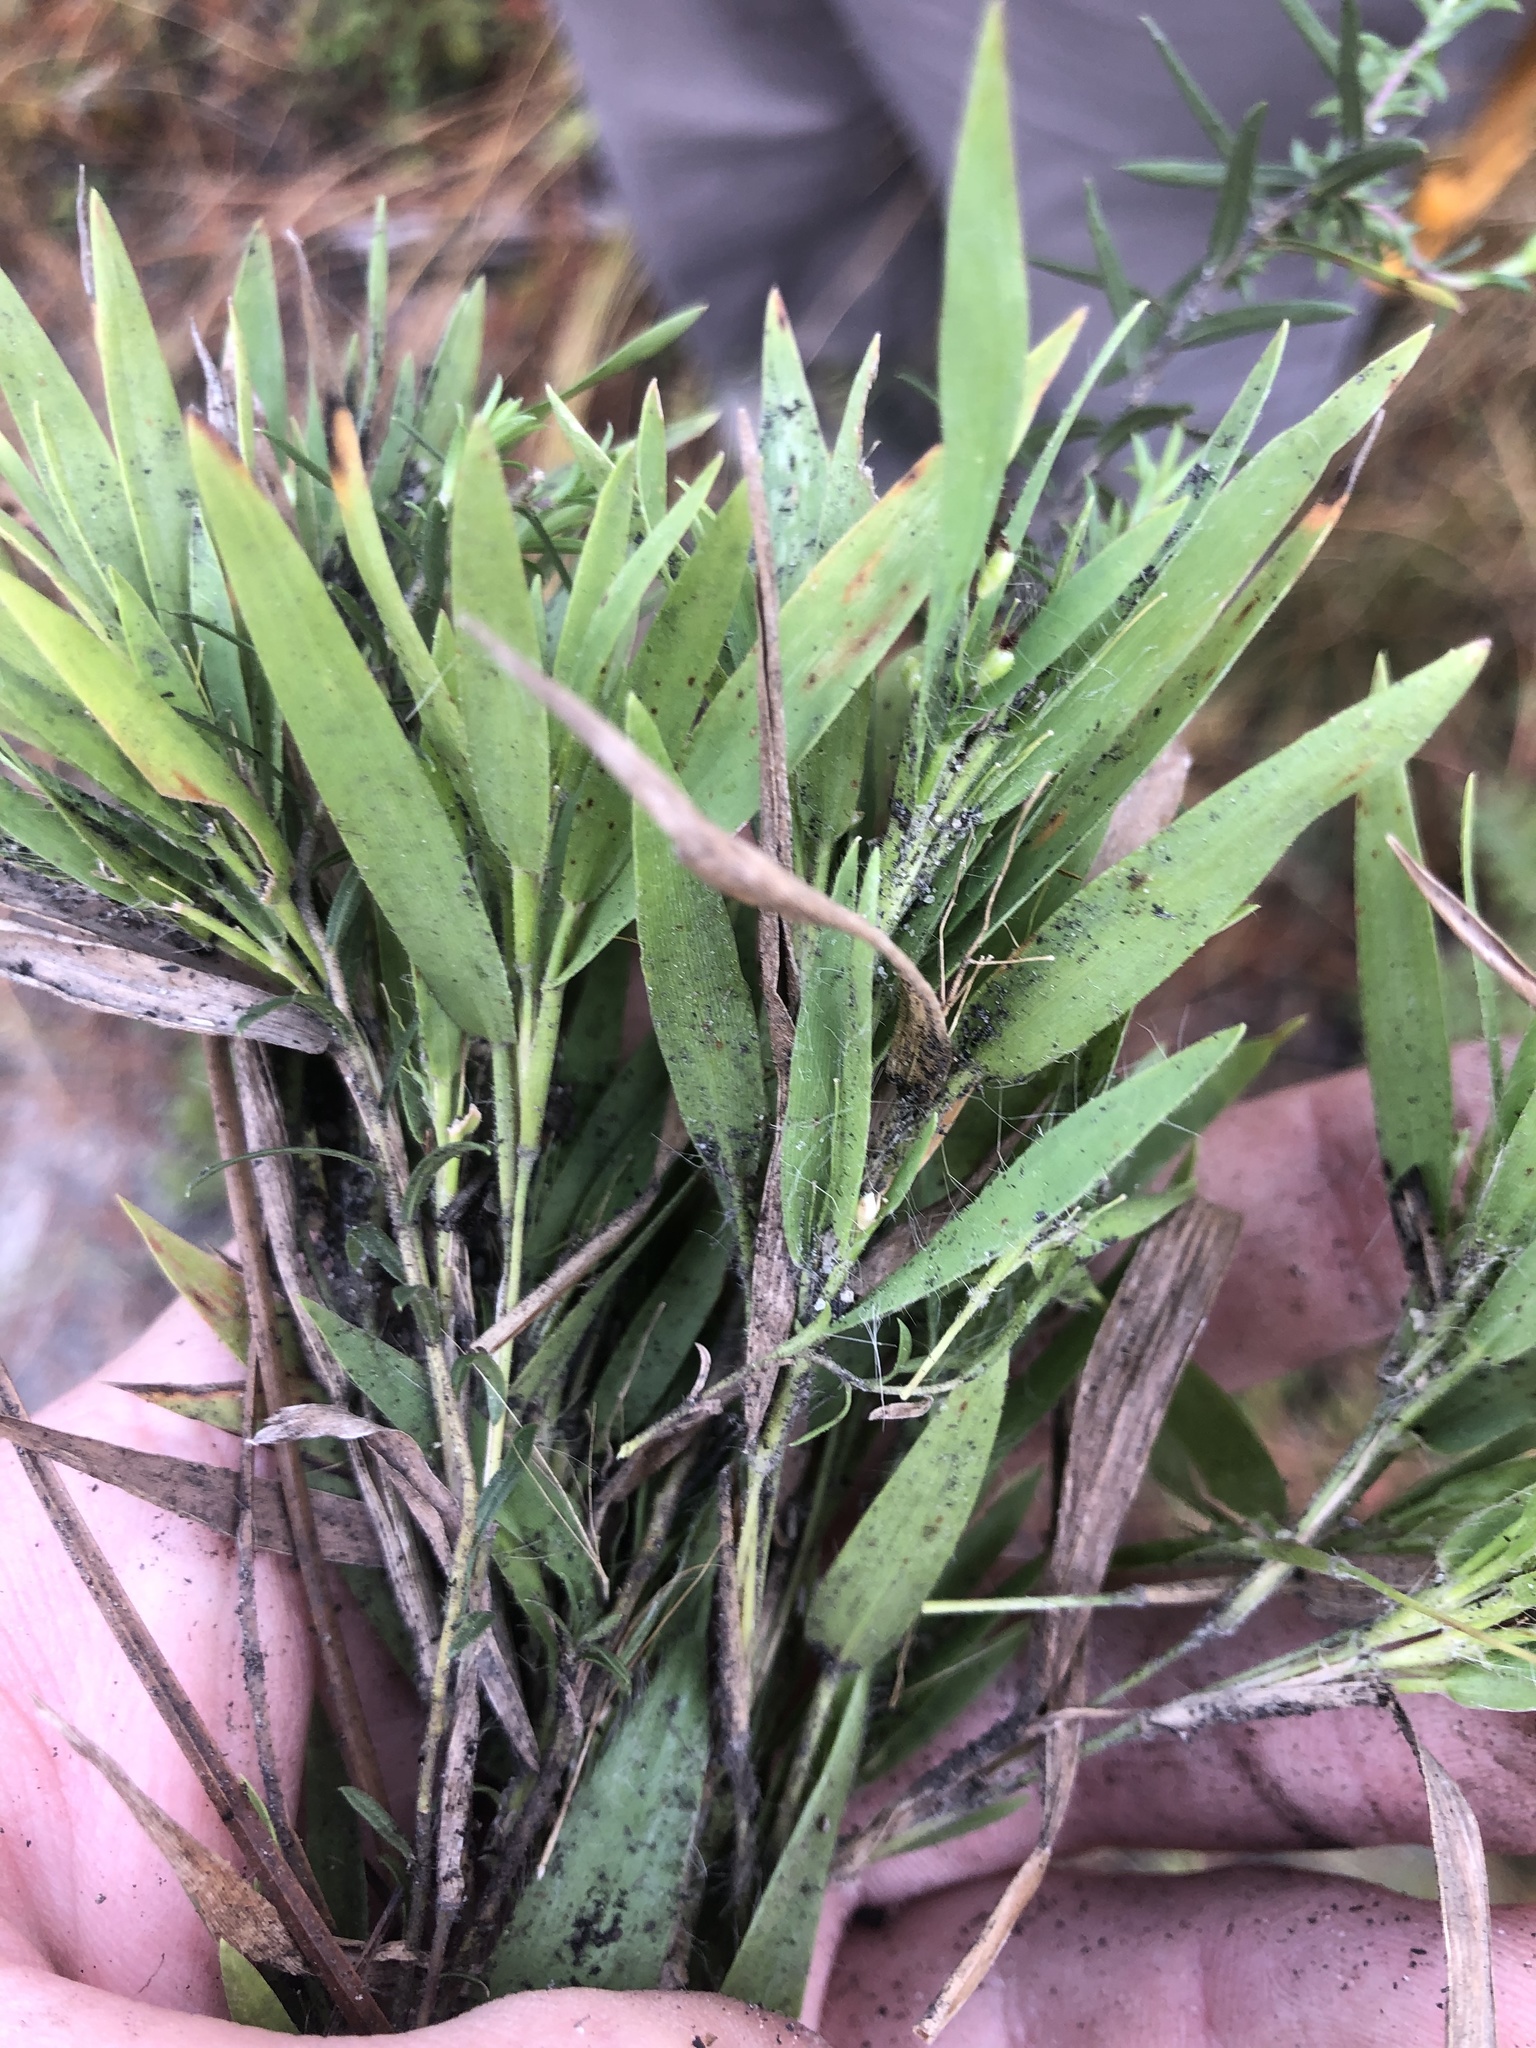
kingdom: Plantae
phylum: Tracheophyta
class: Liliopsida
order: Poales
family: Poaceae
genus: Dichanthelium
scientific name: Dichanthelium ovale
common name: Stiff-leaved panicgrass
